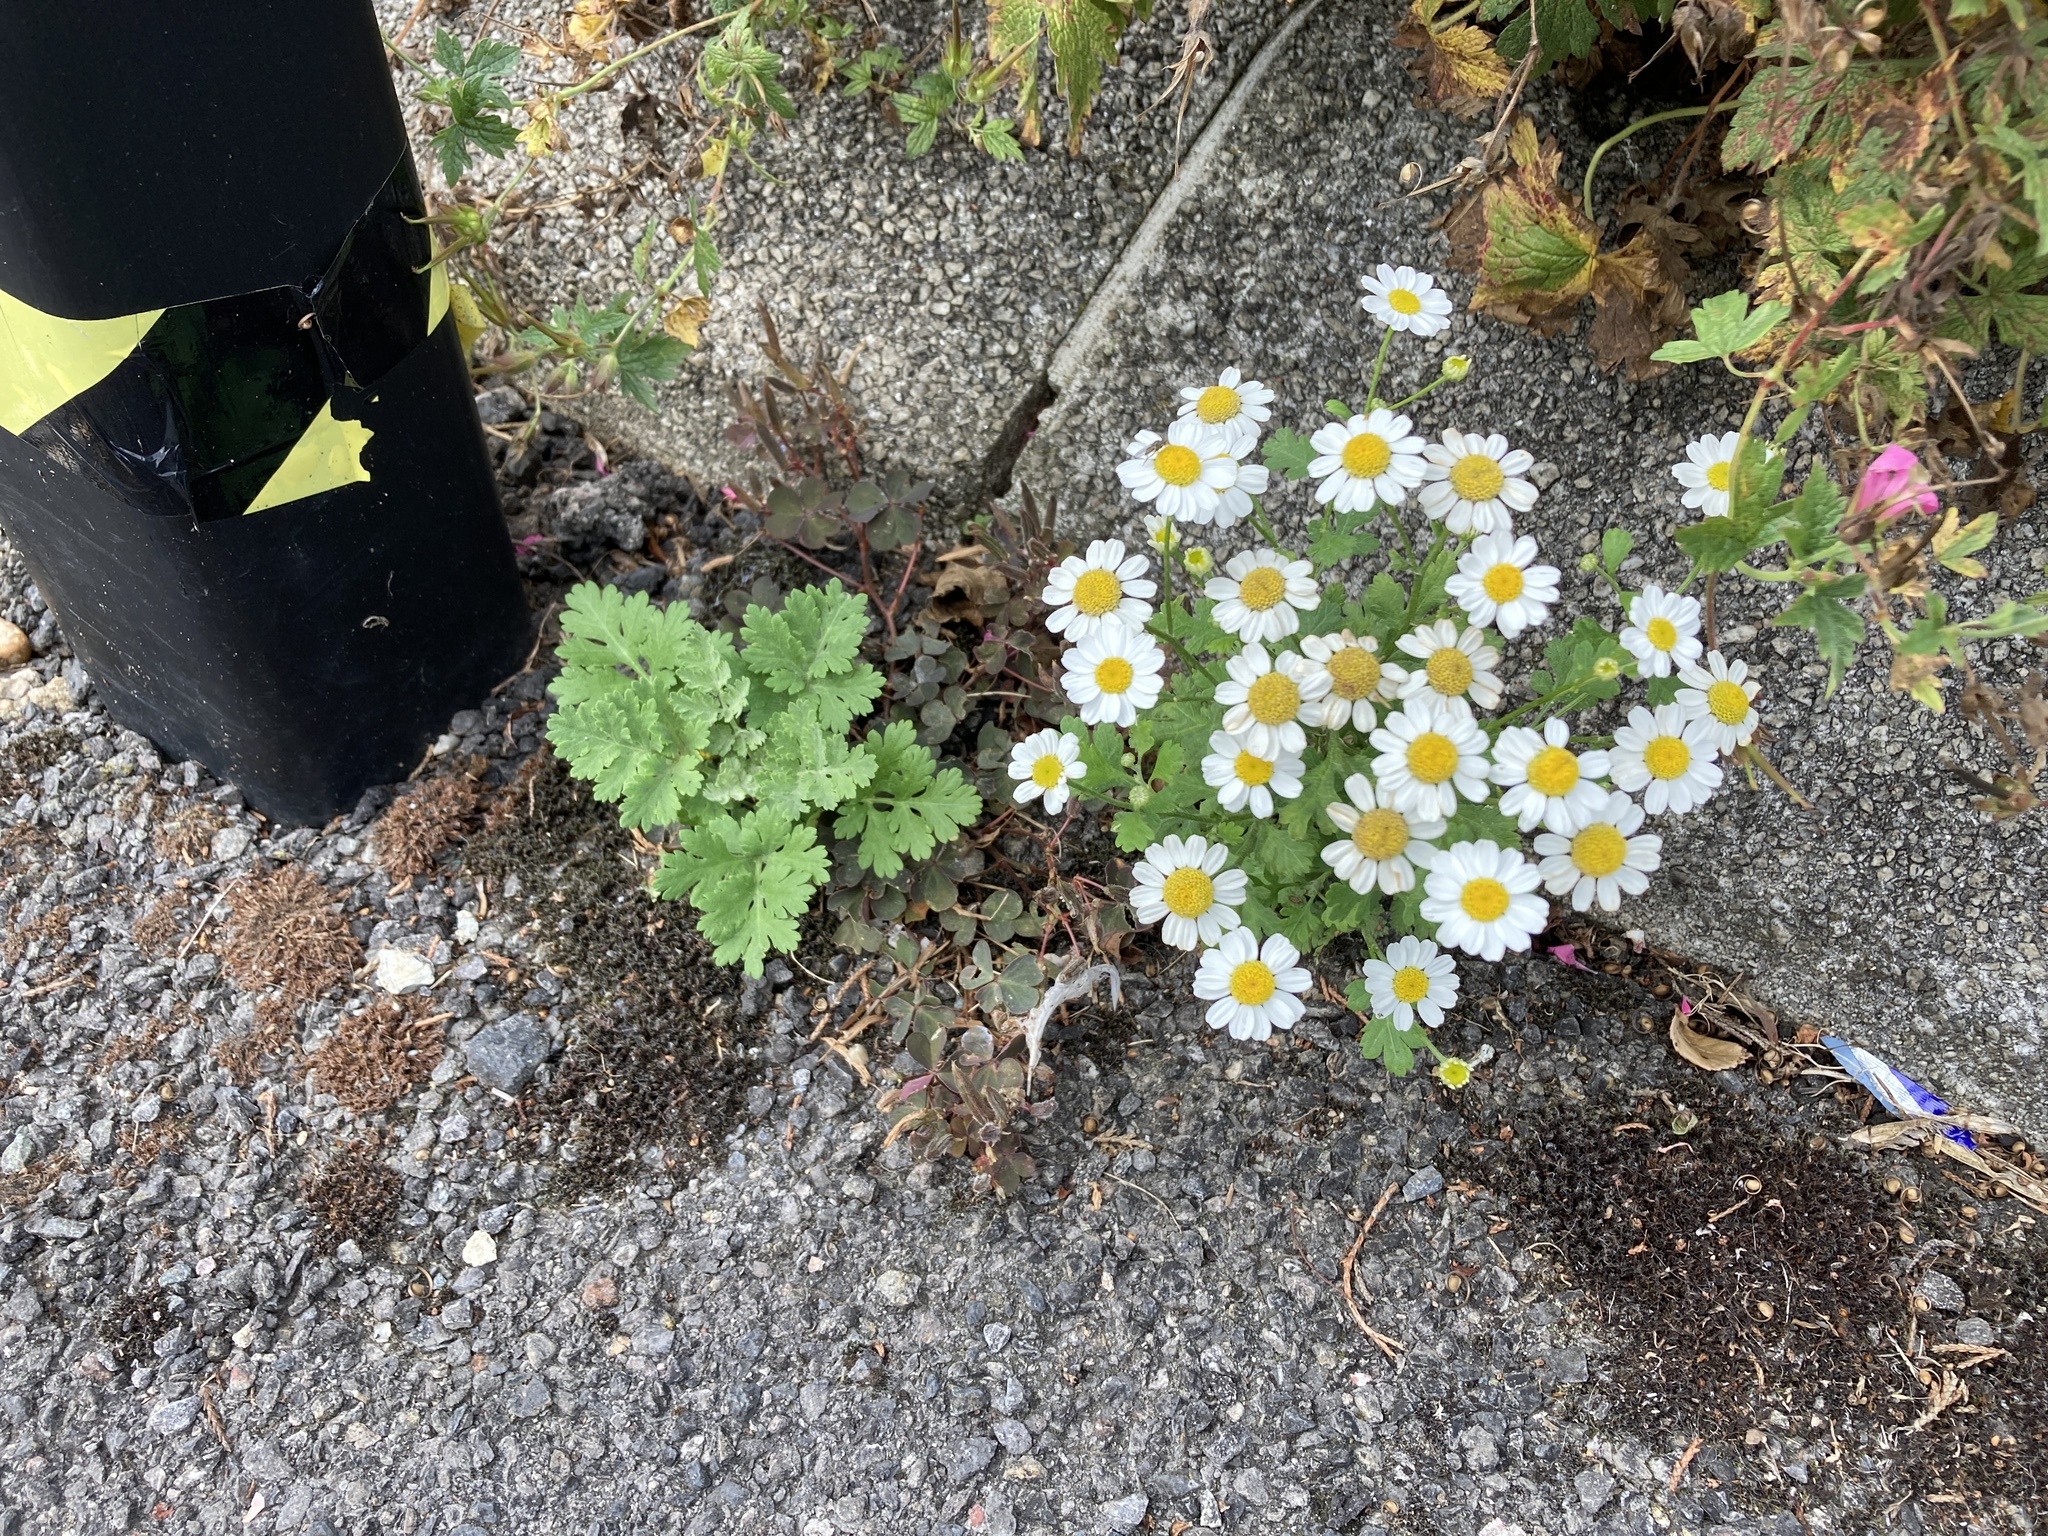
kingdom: Plantae
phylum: Tracheophyta
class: Magnoliopsida
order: Asterales
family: Asteraceae
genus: Tanacetum
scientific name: Tanacetum parthenium
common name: Feverfew
